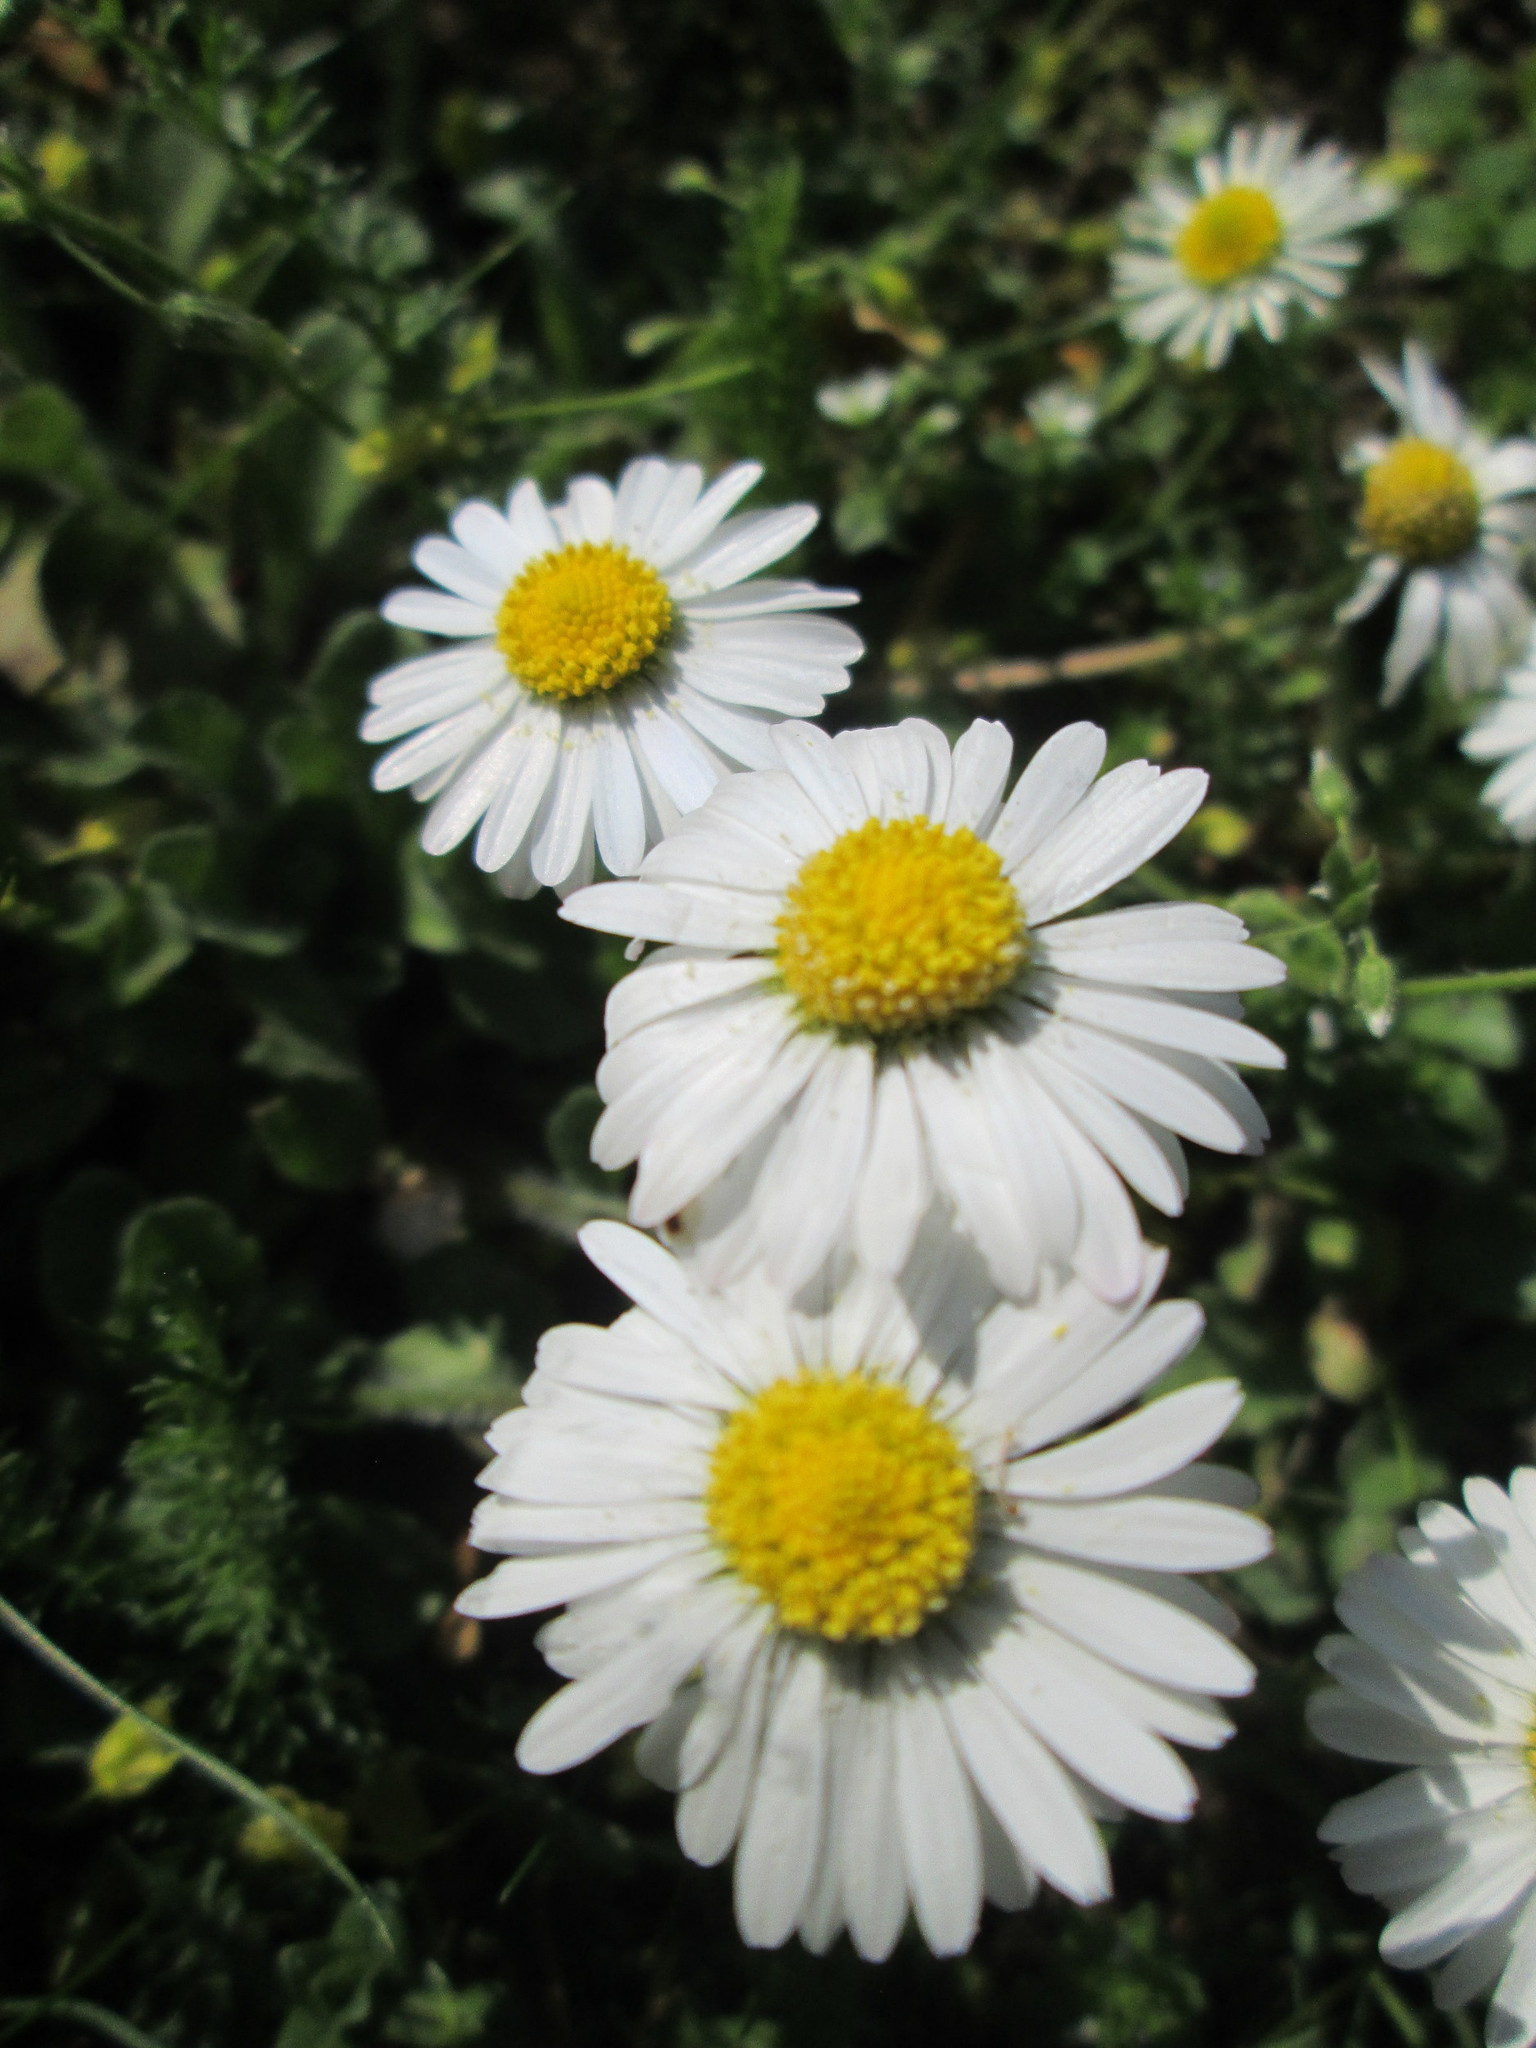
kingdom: Plantae
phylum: Tracheophyta
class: Magnoliopsida
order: Asterales
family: Asteraceae
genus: Bellis
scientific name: Bellis perennis
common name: Lawndaisy
